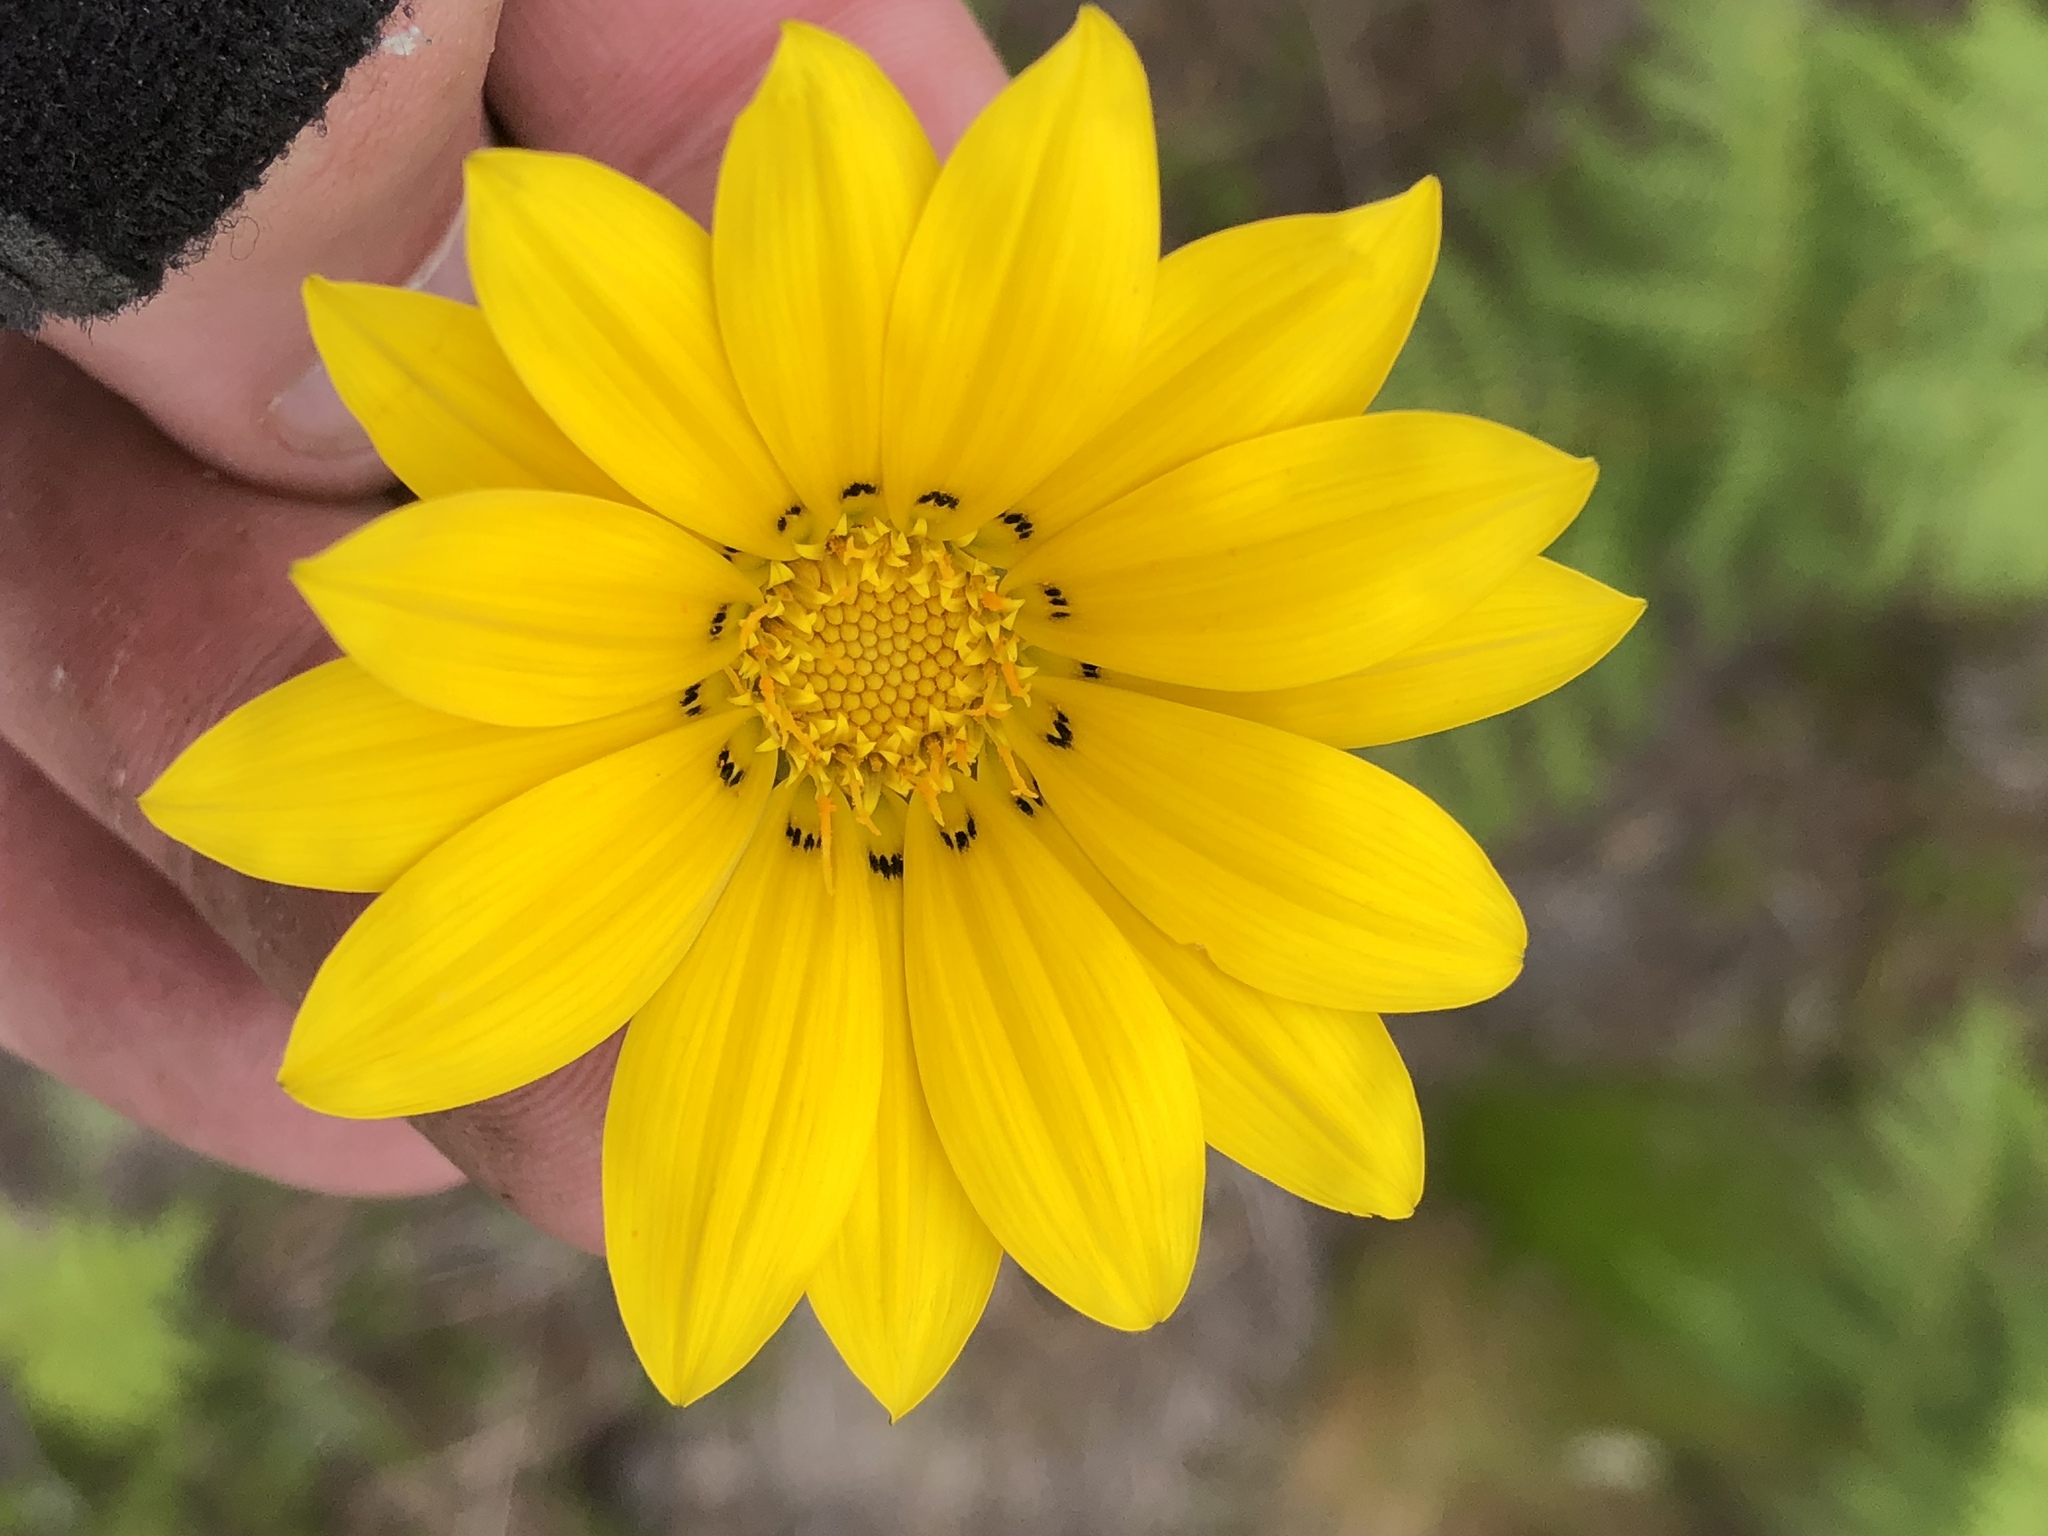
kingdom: Plantae
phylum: Tracheophyta
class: Magnoliopsida
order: Asterales
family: Asteraceae
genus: Gazania
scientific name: Gazania linearis
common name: Treasureflower
